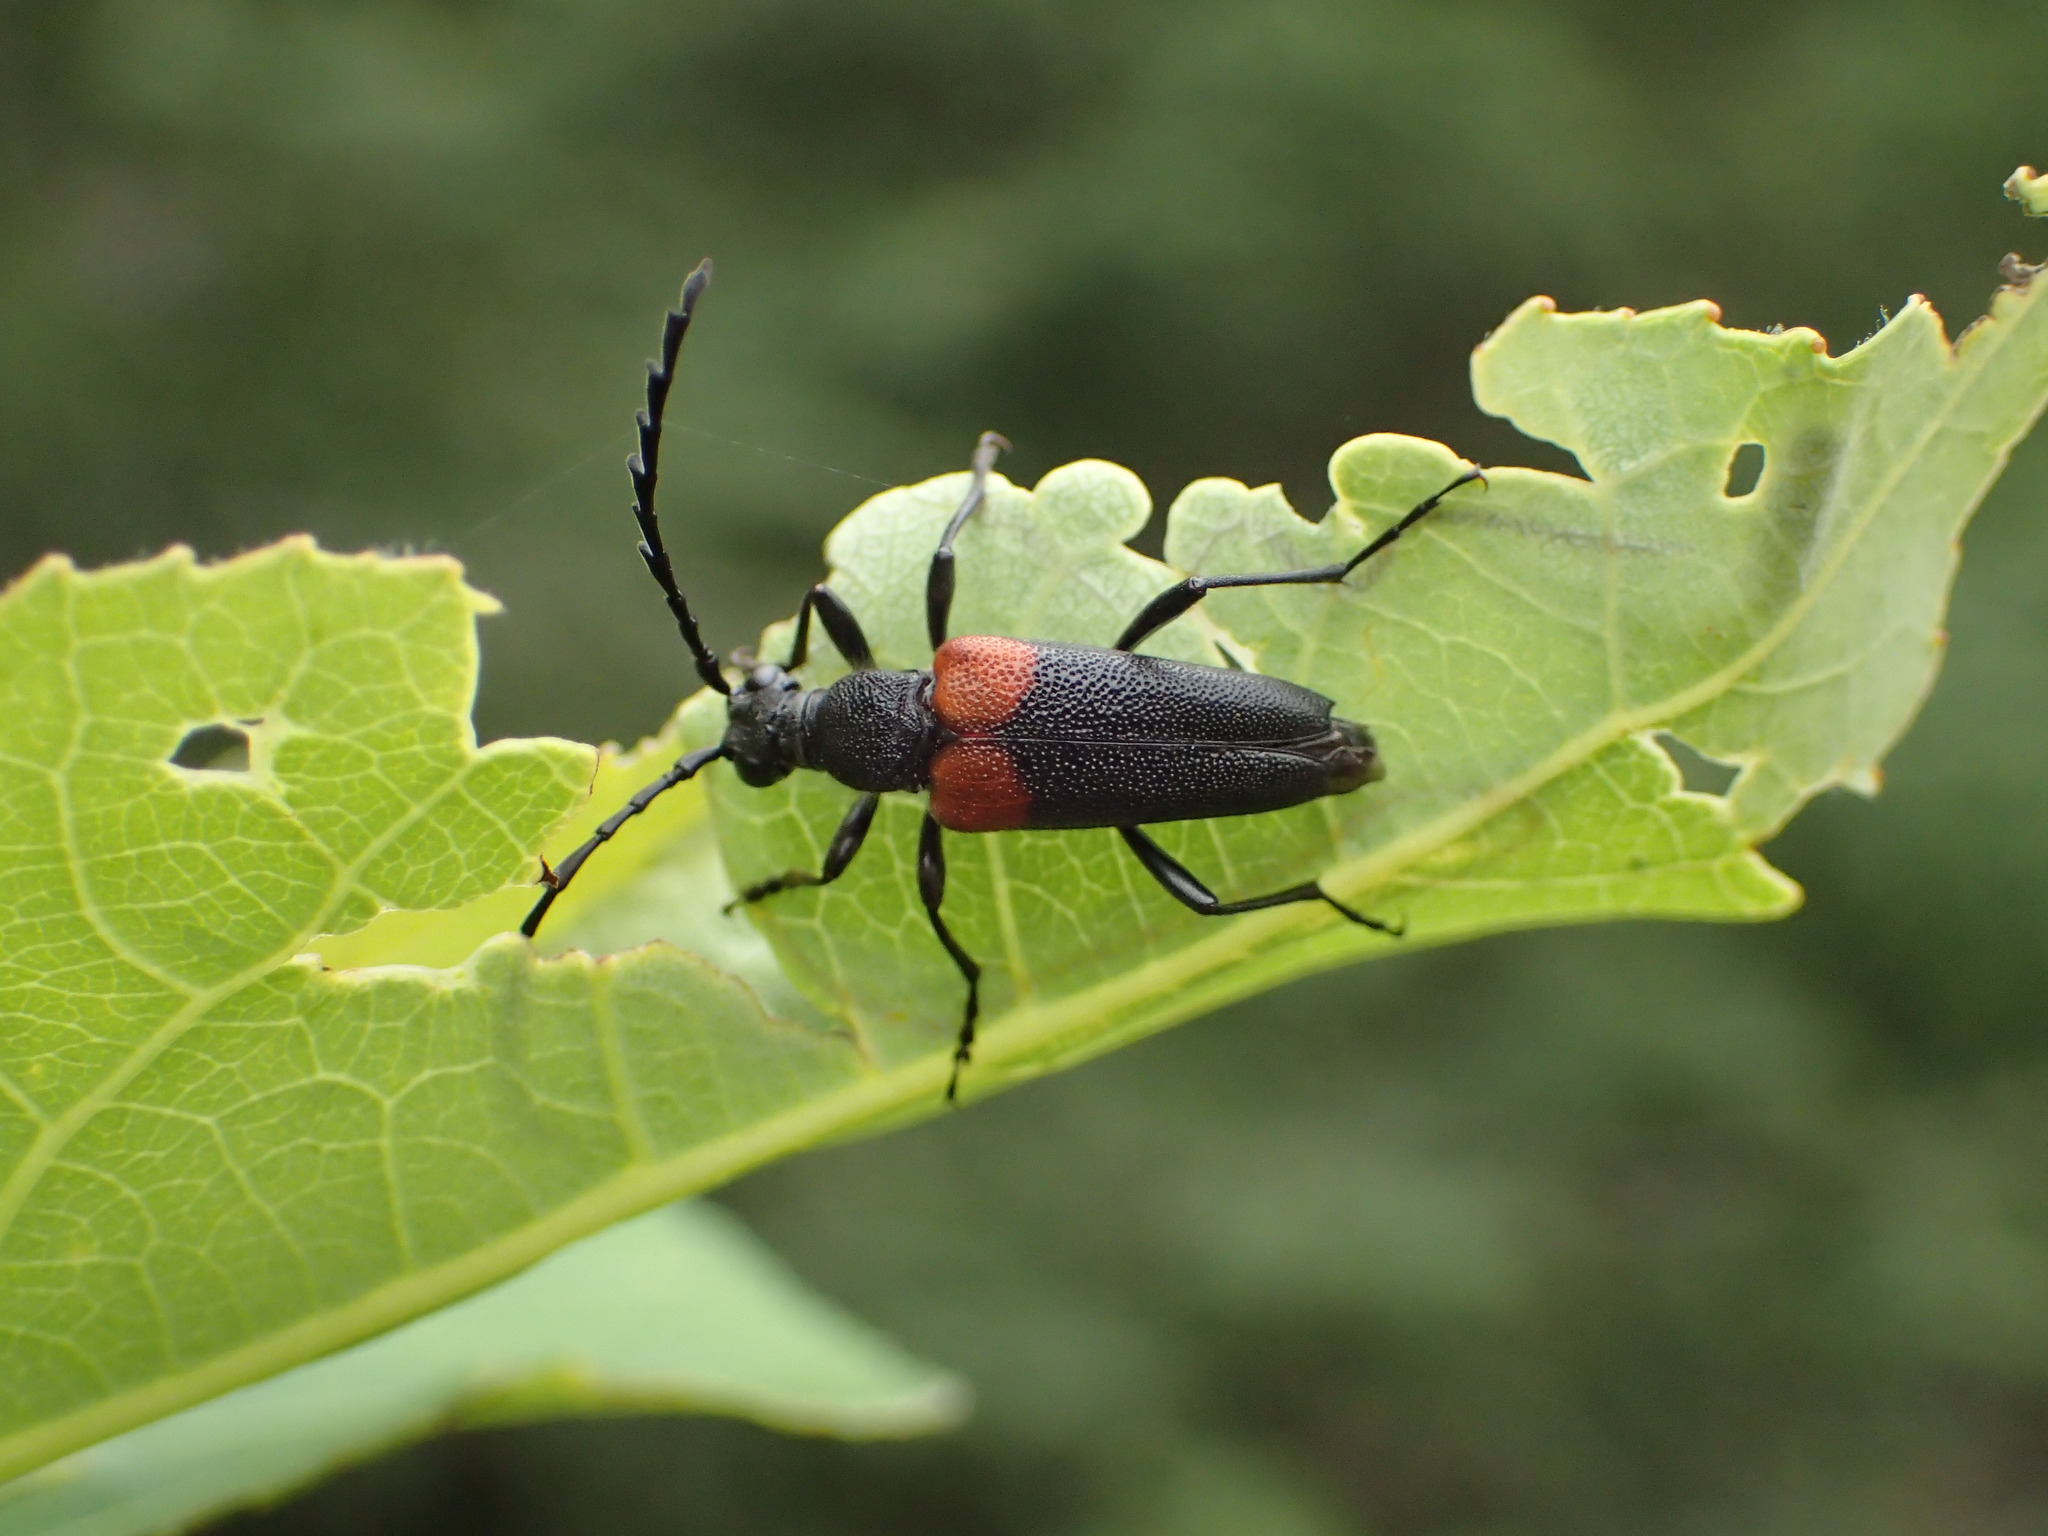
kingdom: Animalia
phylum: Arthropoda
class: Insecta
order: Coleoptera
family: Cerambycidae
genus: Stictoleptura
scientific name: Stictoleptura canadensis
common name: Red-shouldered pine borer
